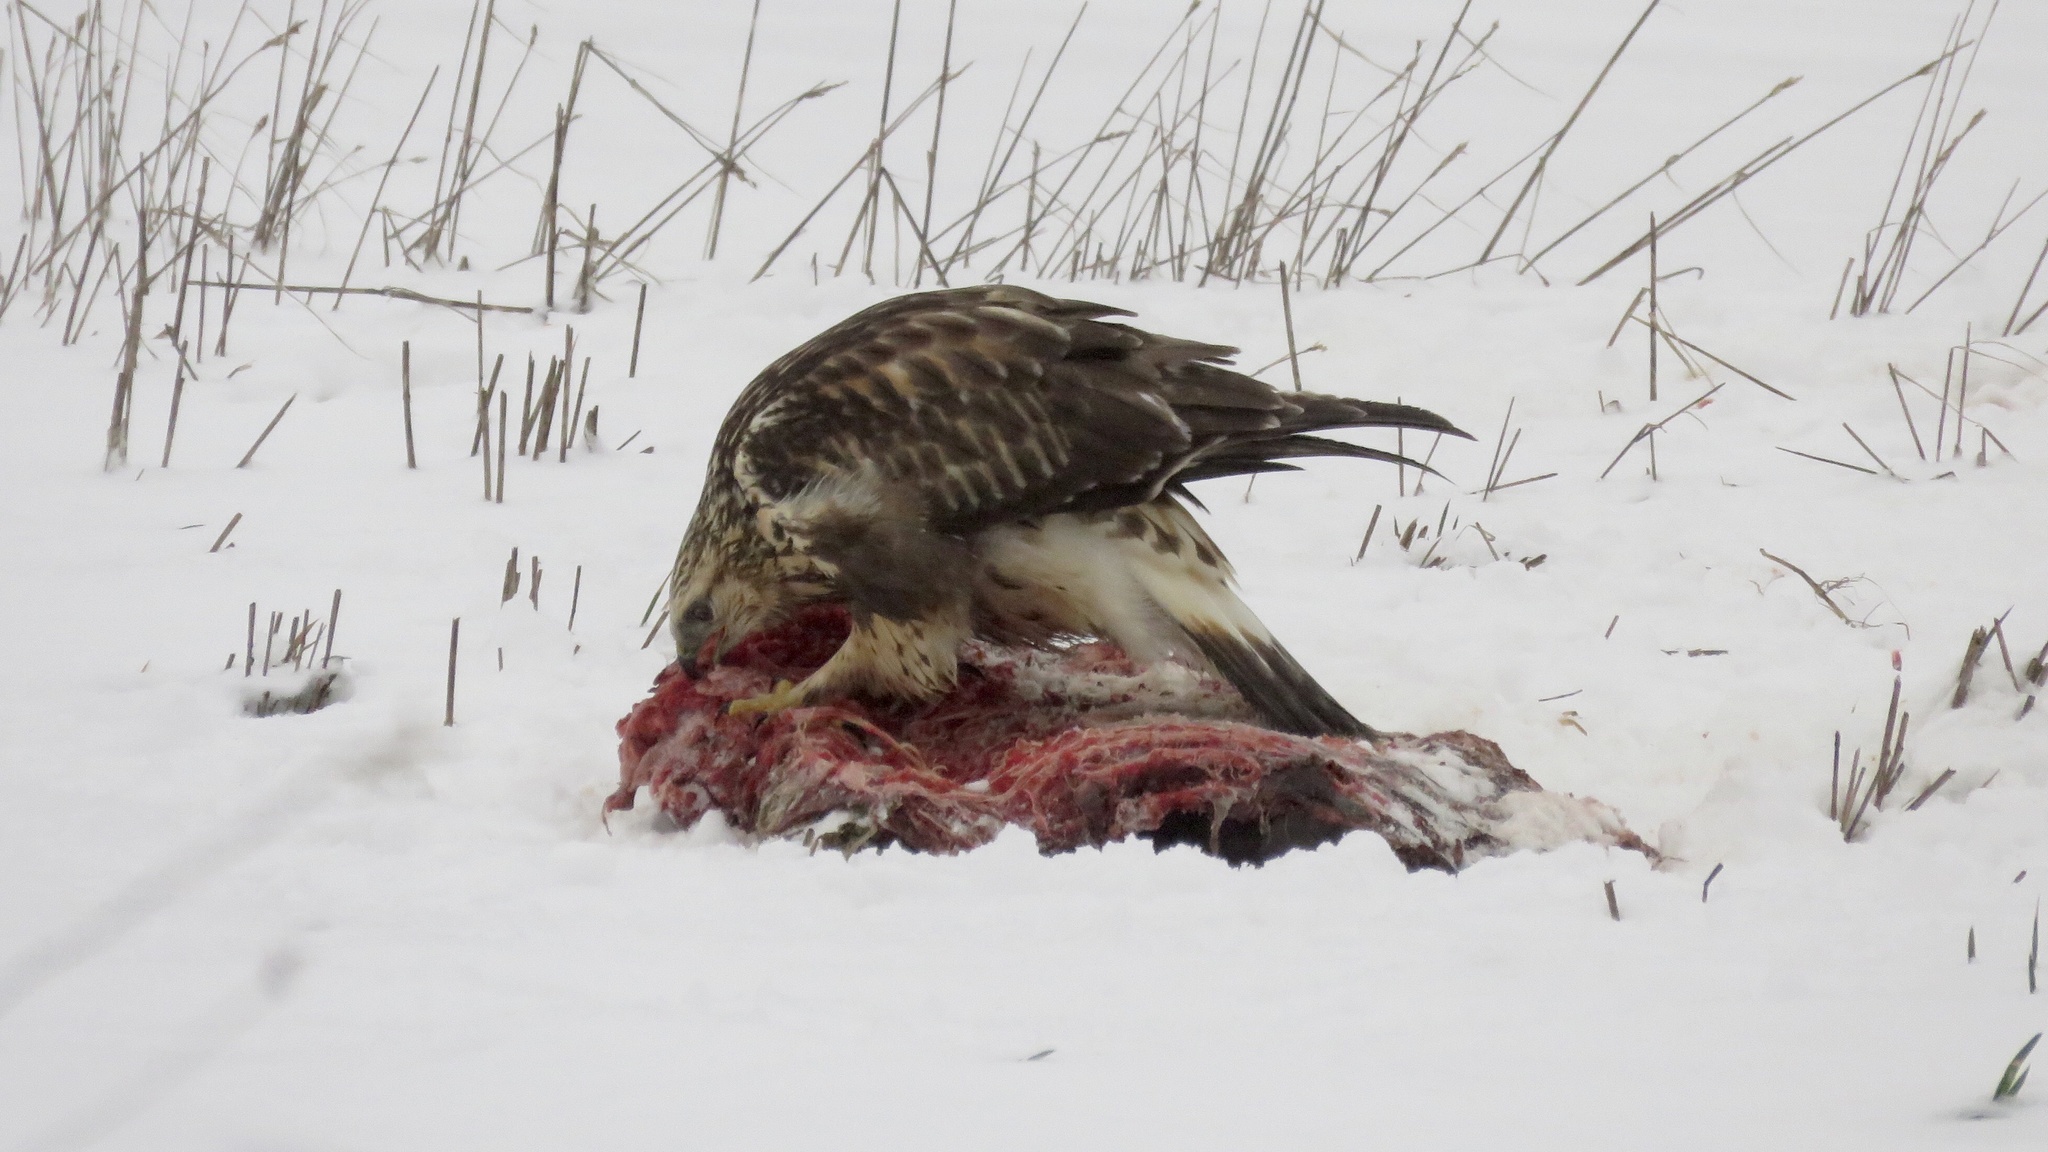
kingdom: Animalia
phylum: Chordata
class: Aves
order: Accipitriformes
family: Accipitridae
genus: Buteo
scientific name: Buteo lagopus
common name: Rough-legged buzzard
